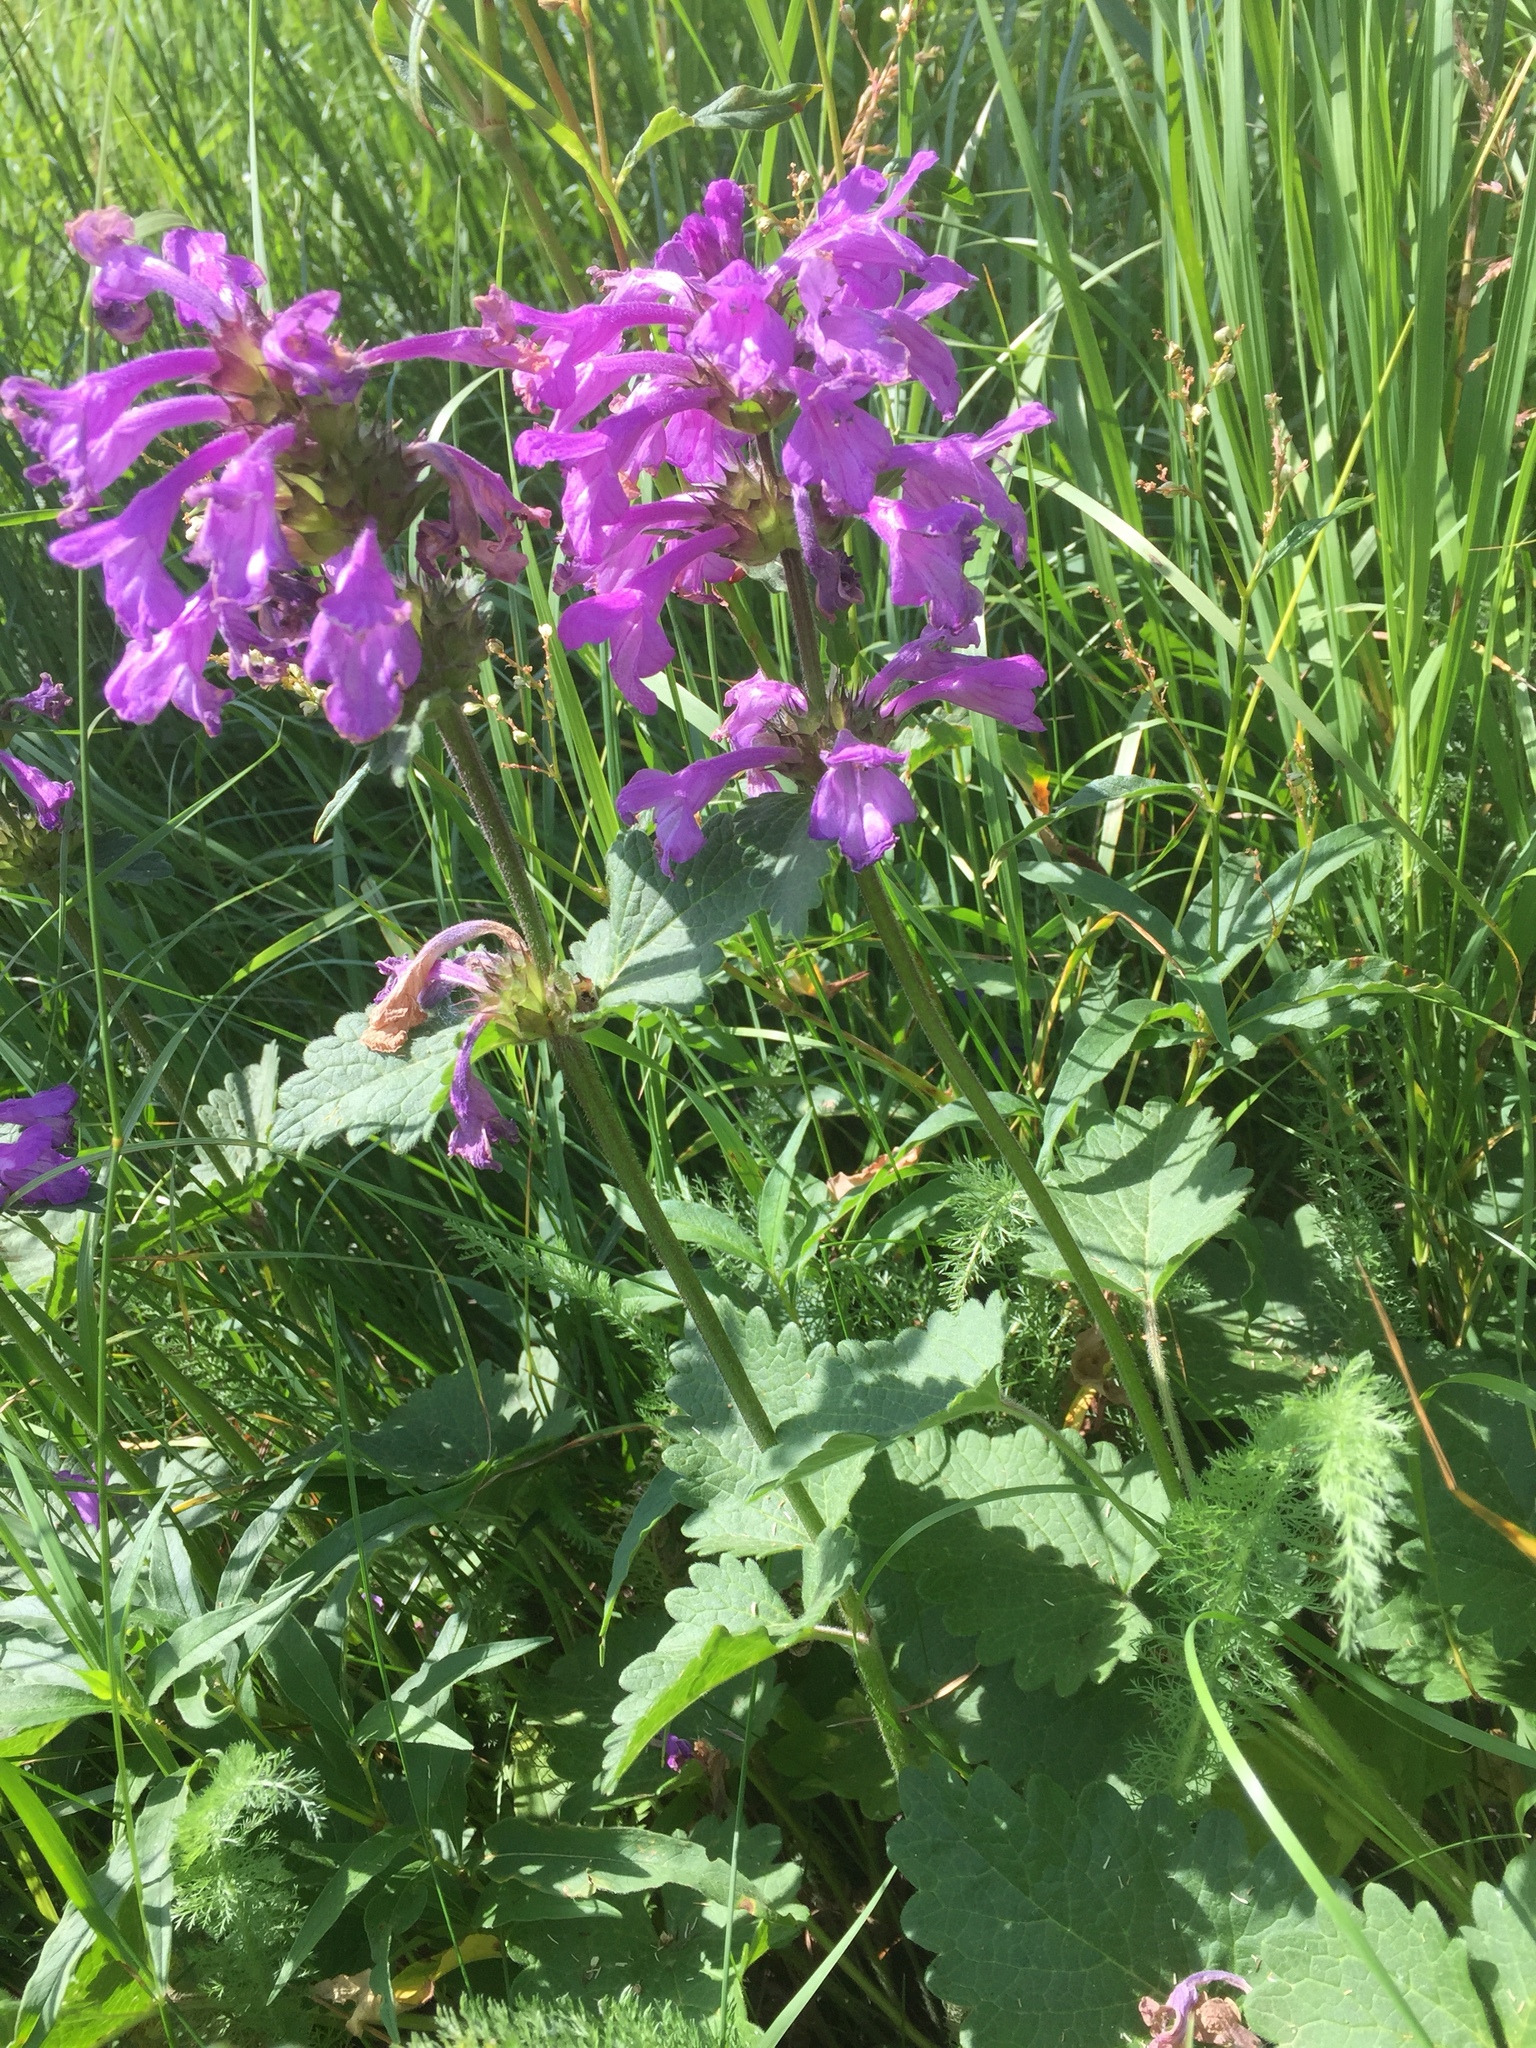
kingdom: Plantae
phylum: Tracheophyta
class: Magnoliopsida
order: Lamiales
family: Lamiaceae
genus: Betonica
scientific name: Betonica macrantha
